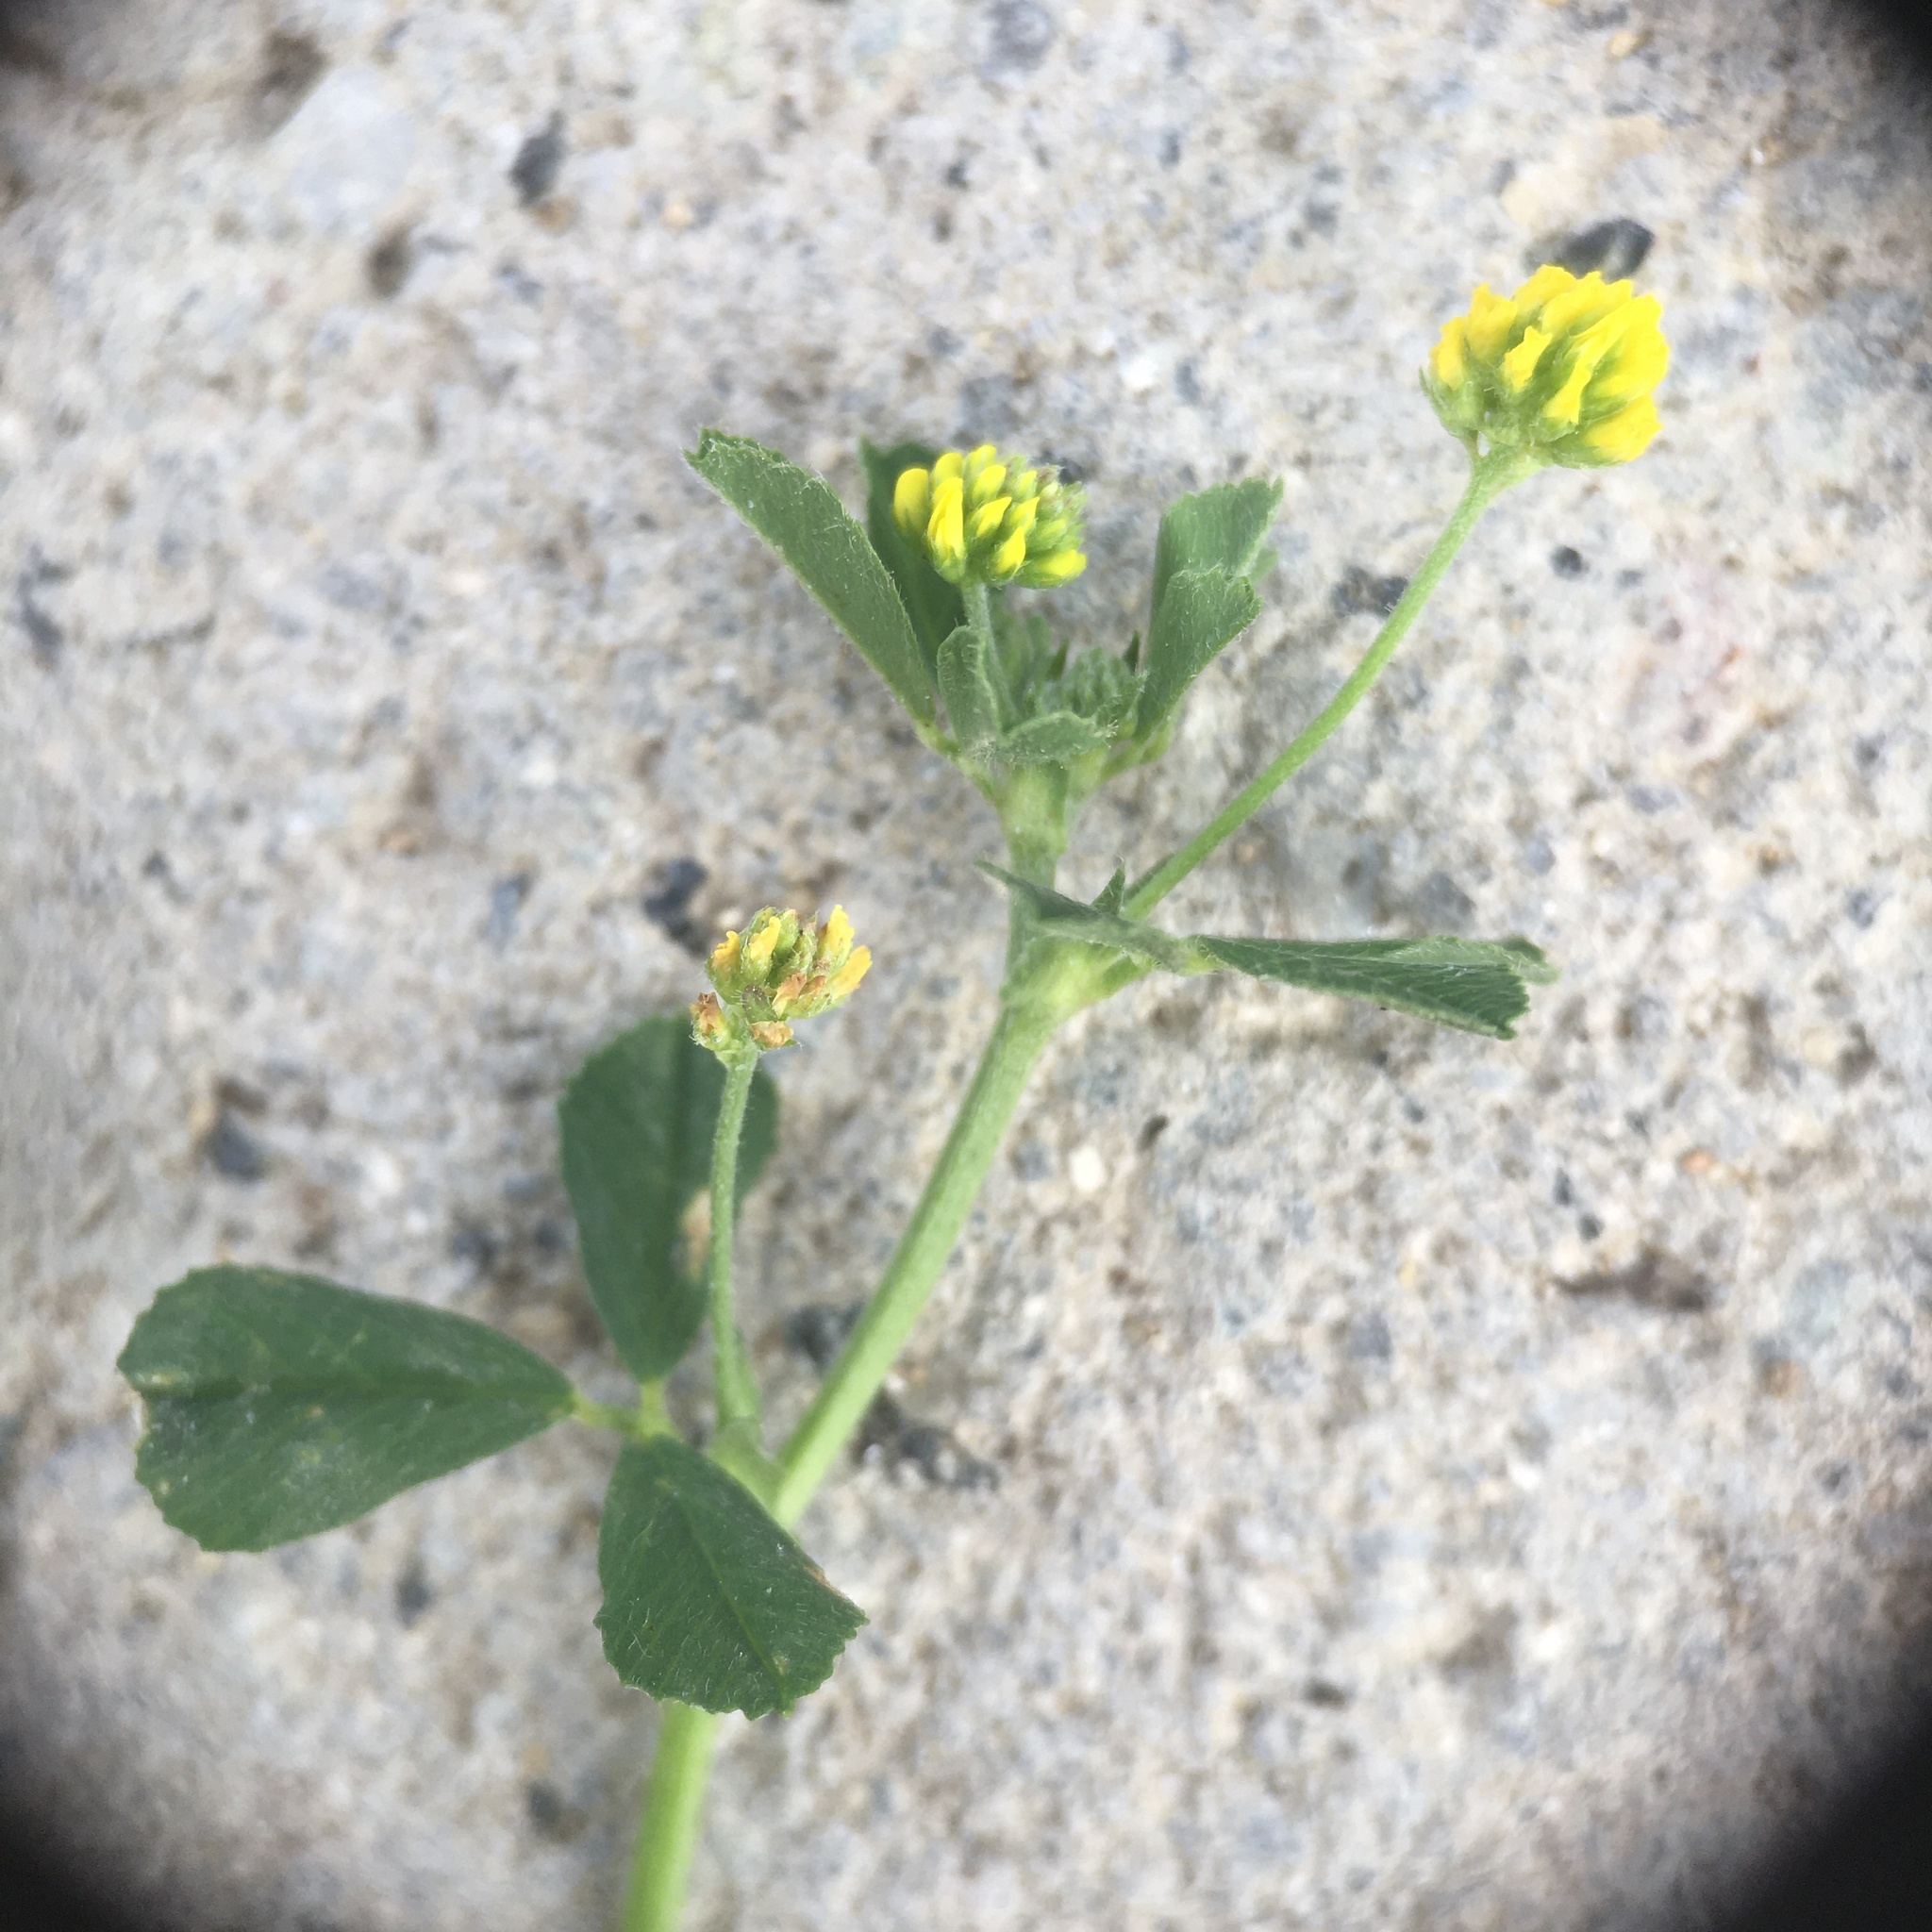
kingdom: Plantae
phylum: Tracheophyta
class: Magnoliopsida
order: Fabales
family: Fabaceae
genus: Medicago
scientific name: Medicago lupulina
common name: Black medick
